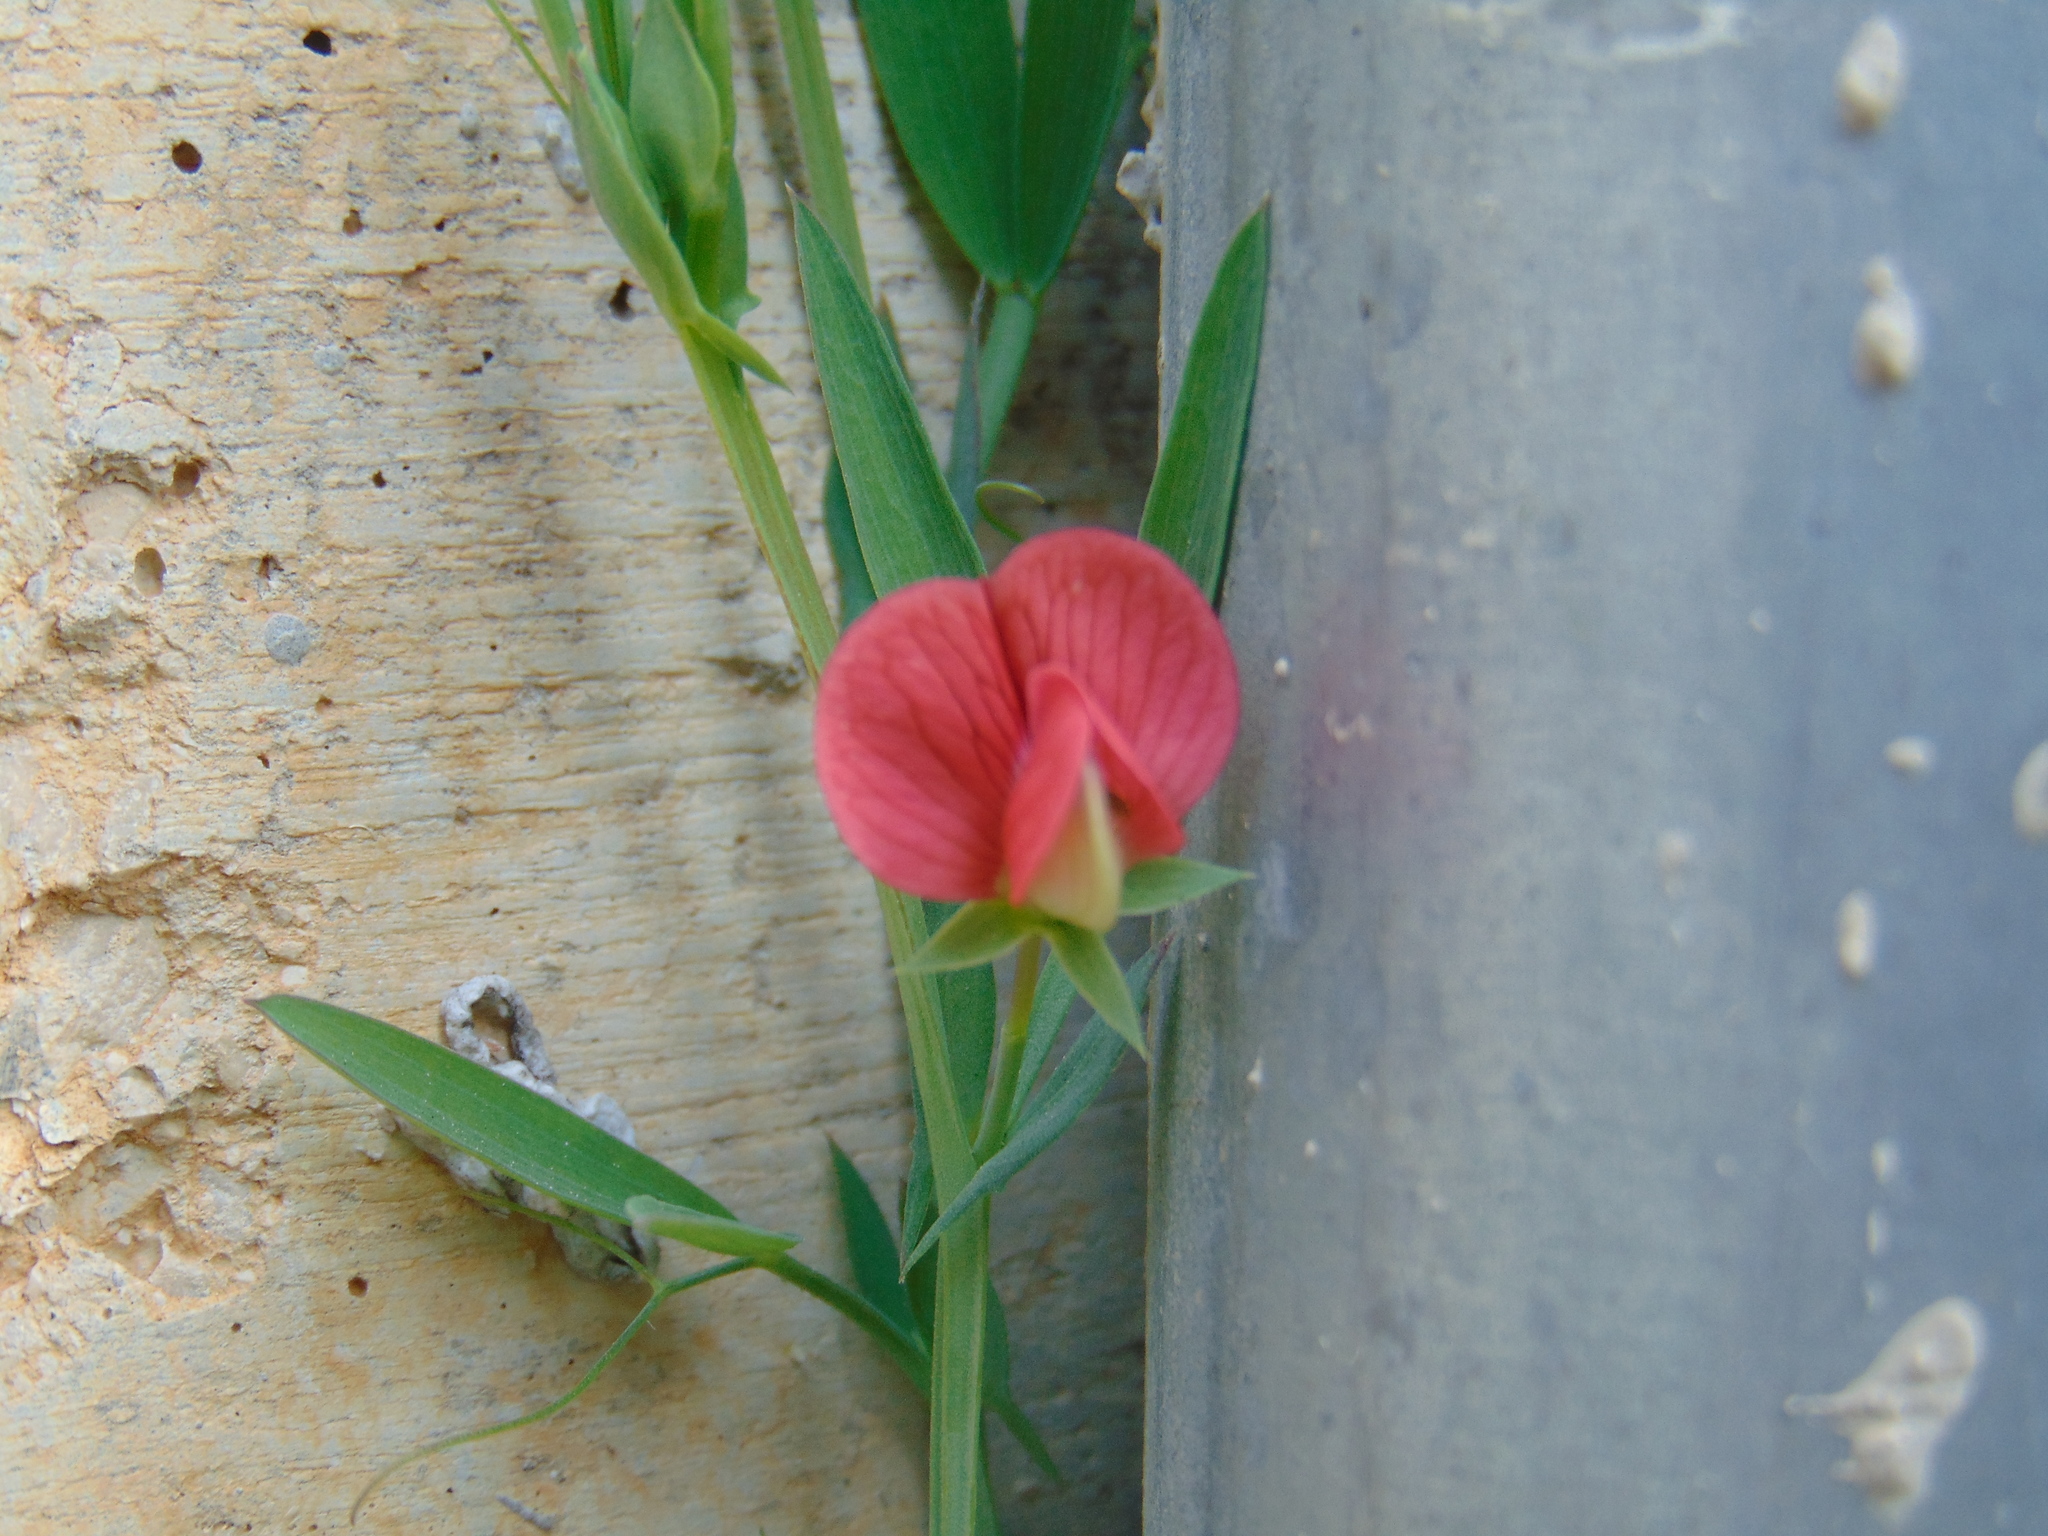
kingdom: Plantae
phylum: Tracheophyta
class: Magnoliopsida
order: Fabales
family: Fabaceae
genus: Lathyrus
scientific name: Lathyrus cicera
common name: Red vetchling
